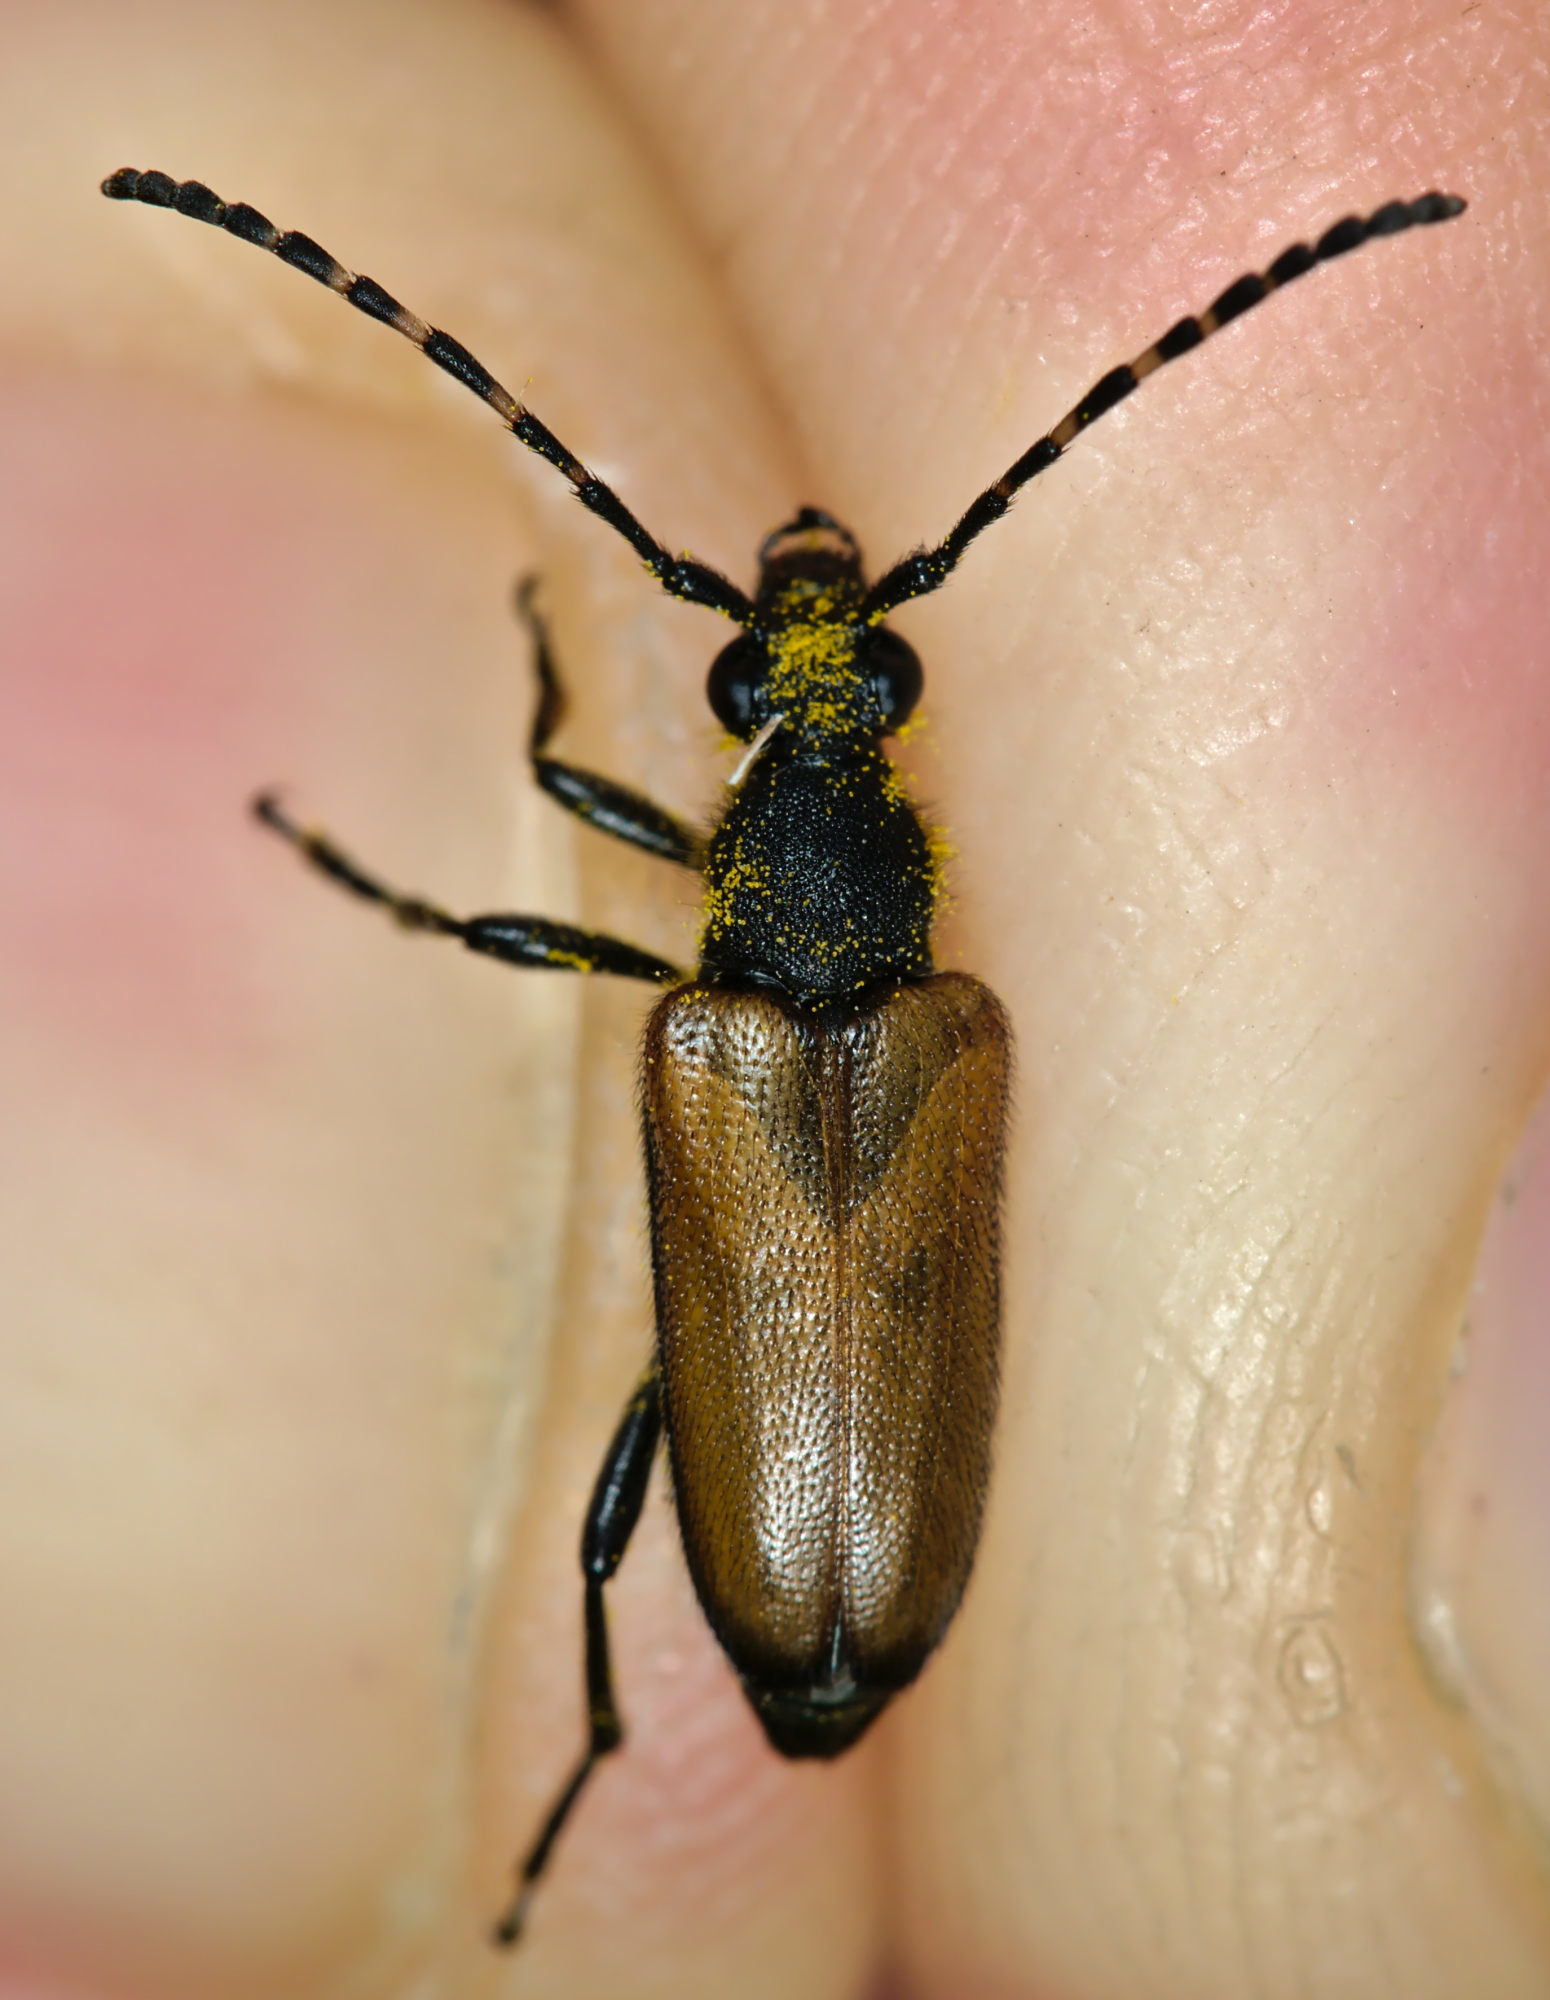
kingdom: Animalia
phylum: Arthropoda
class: Insecta
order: Coleoptera
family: Cerambycidae
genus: Paracorymbia
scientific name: Paracorymbia maculicornis
